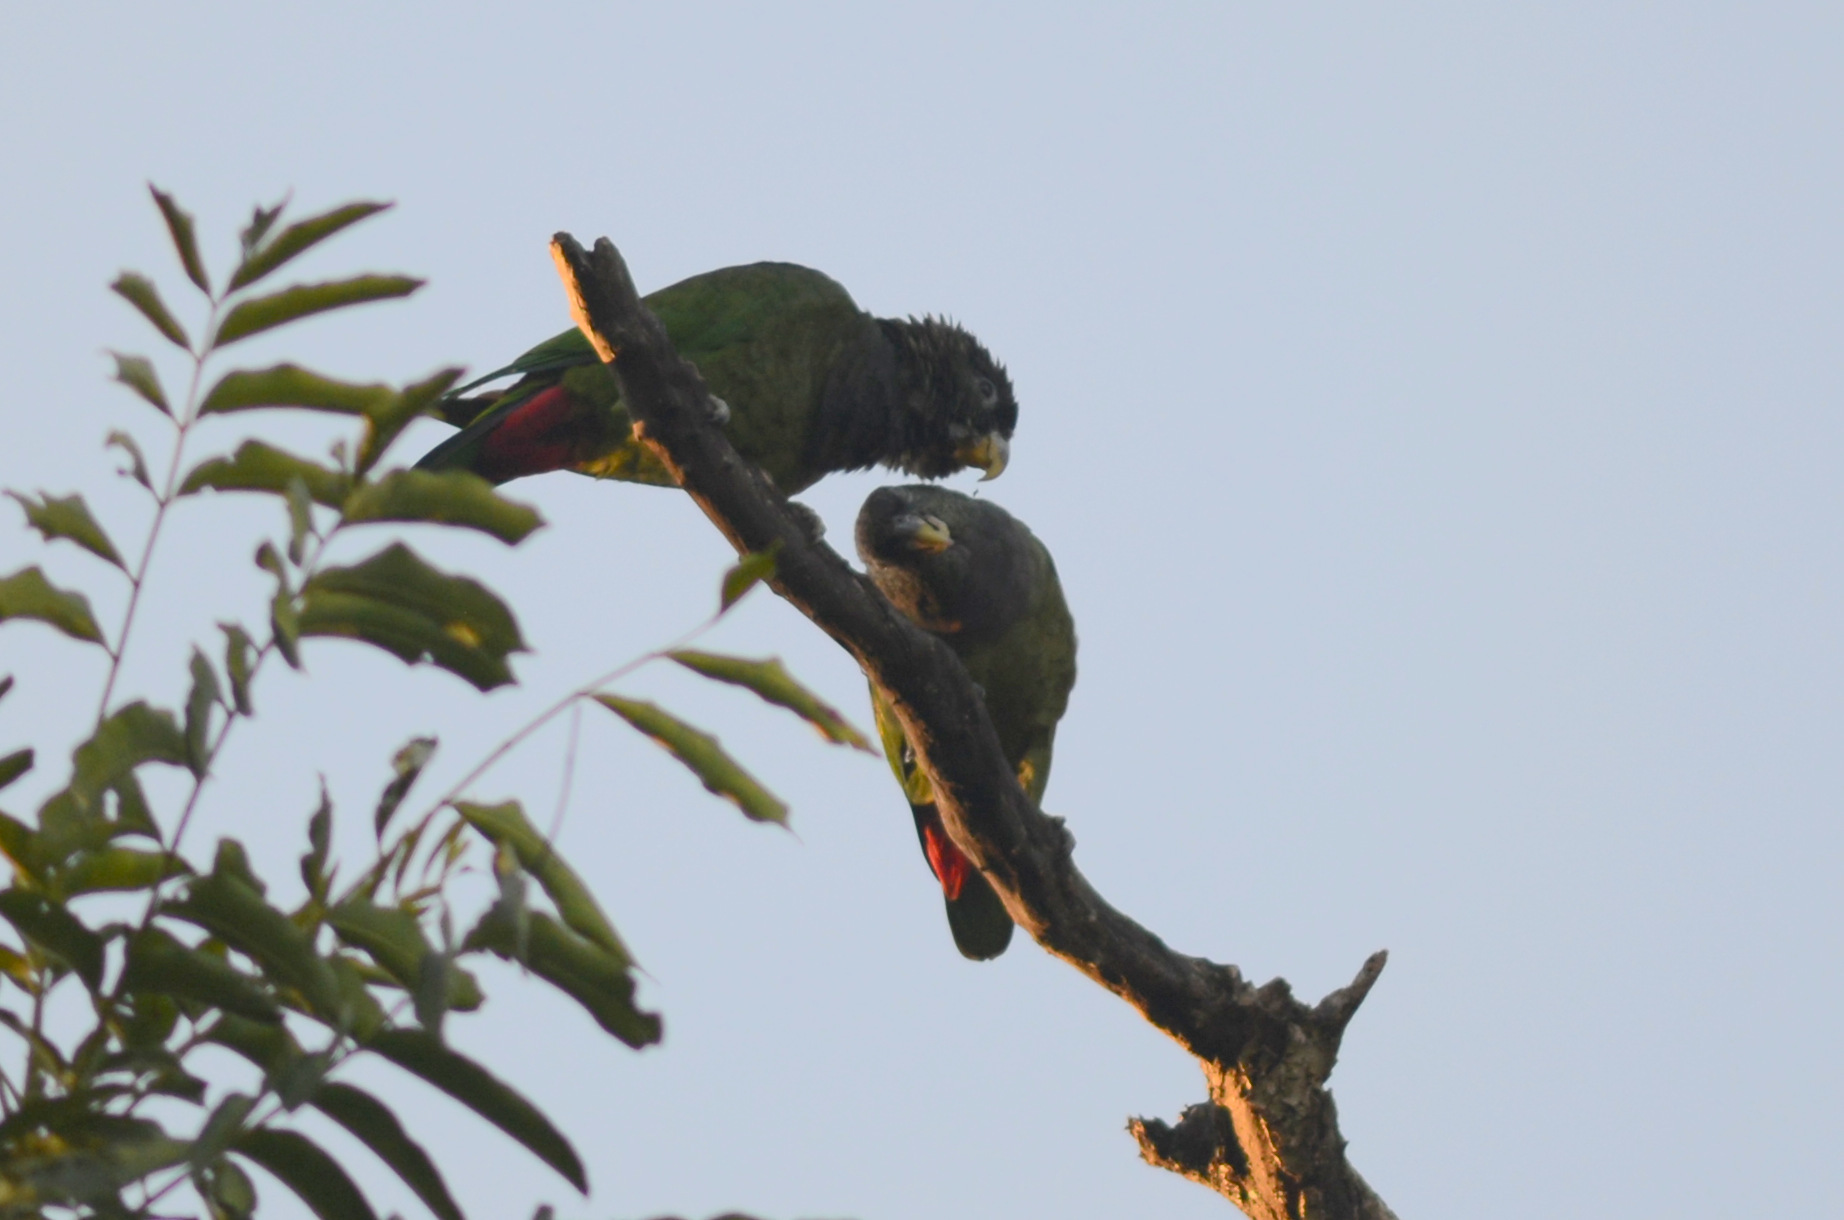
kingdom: Animalia
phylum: Chordata
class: Aves
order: Psittaciformes
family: Psittacidae
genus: Pionus
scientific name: Pionus maximiliani
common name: Scaly-headed parrot
